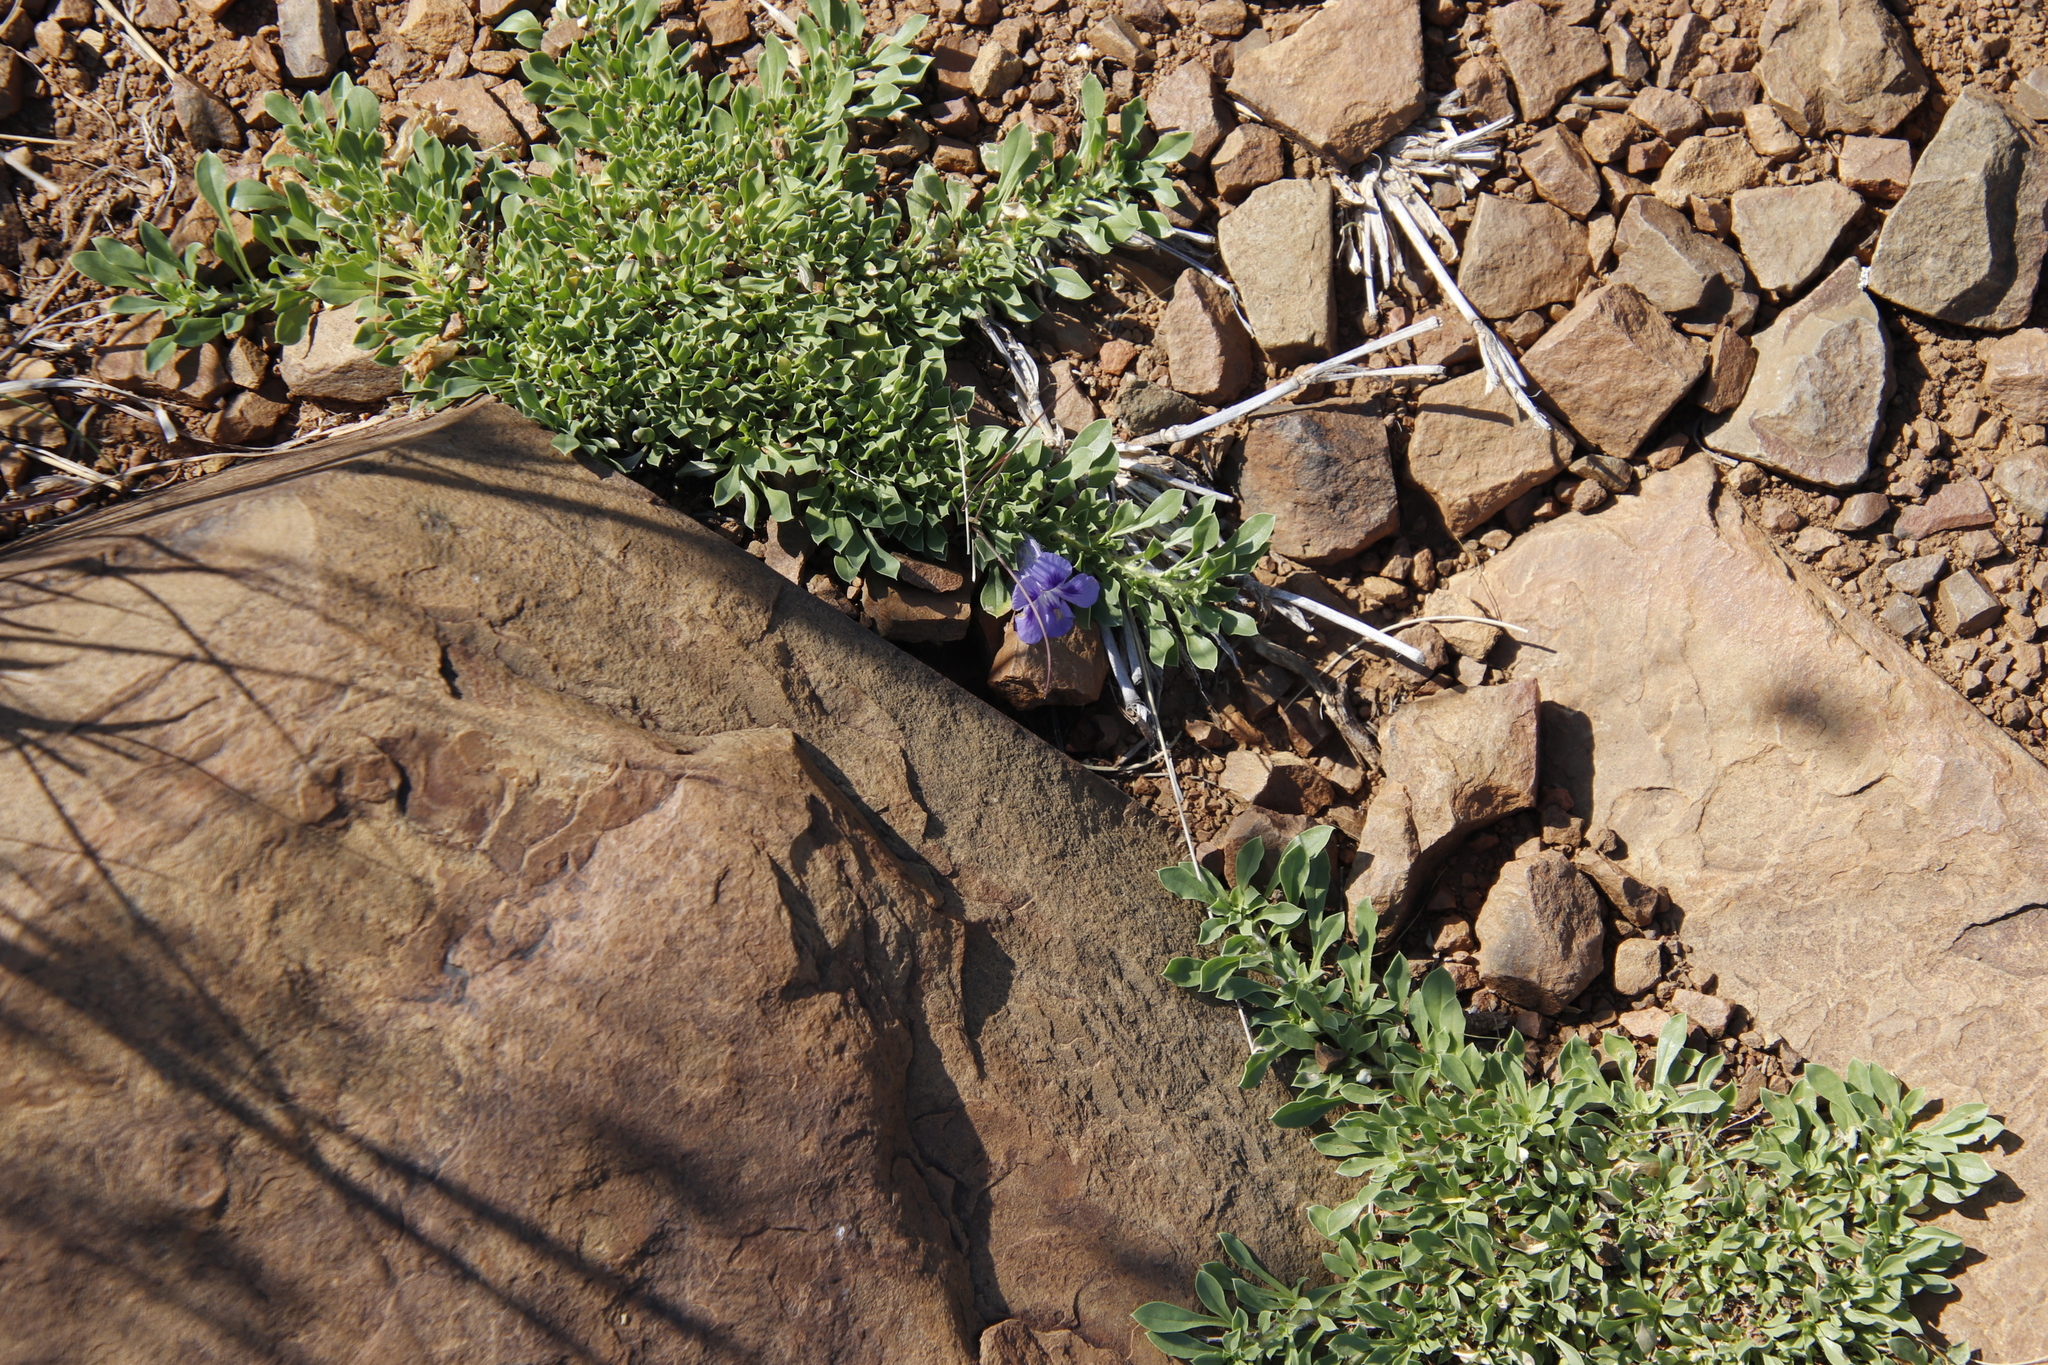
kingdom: Plantae
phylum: Tracheophyta
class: Magnoliopsida
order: Lamiales
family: Scrophulariaceae
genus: Aptosimum
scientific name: Aptosimum procumbens
